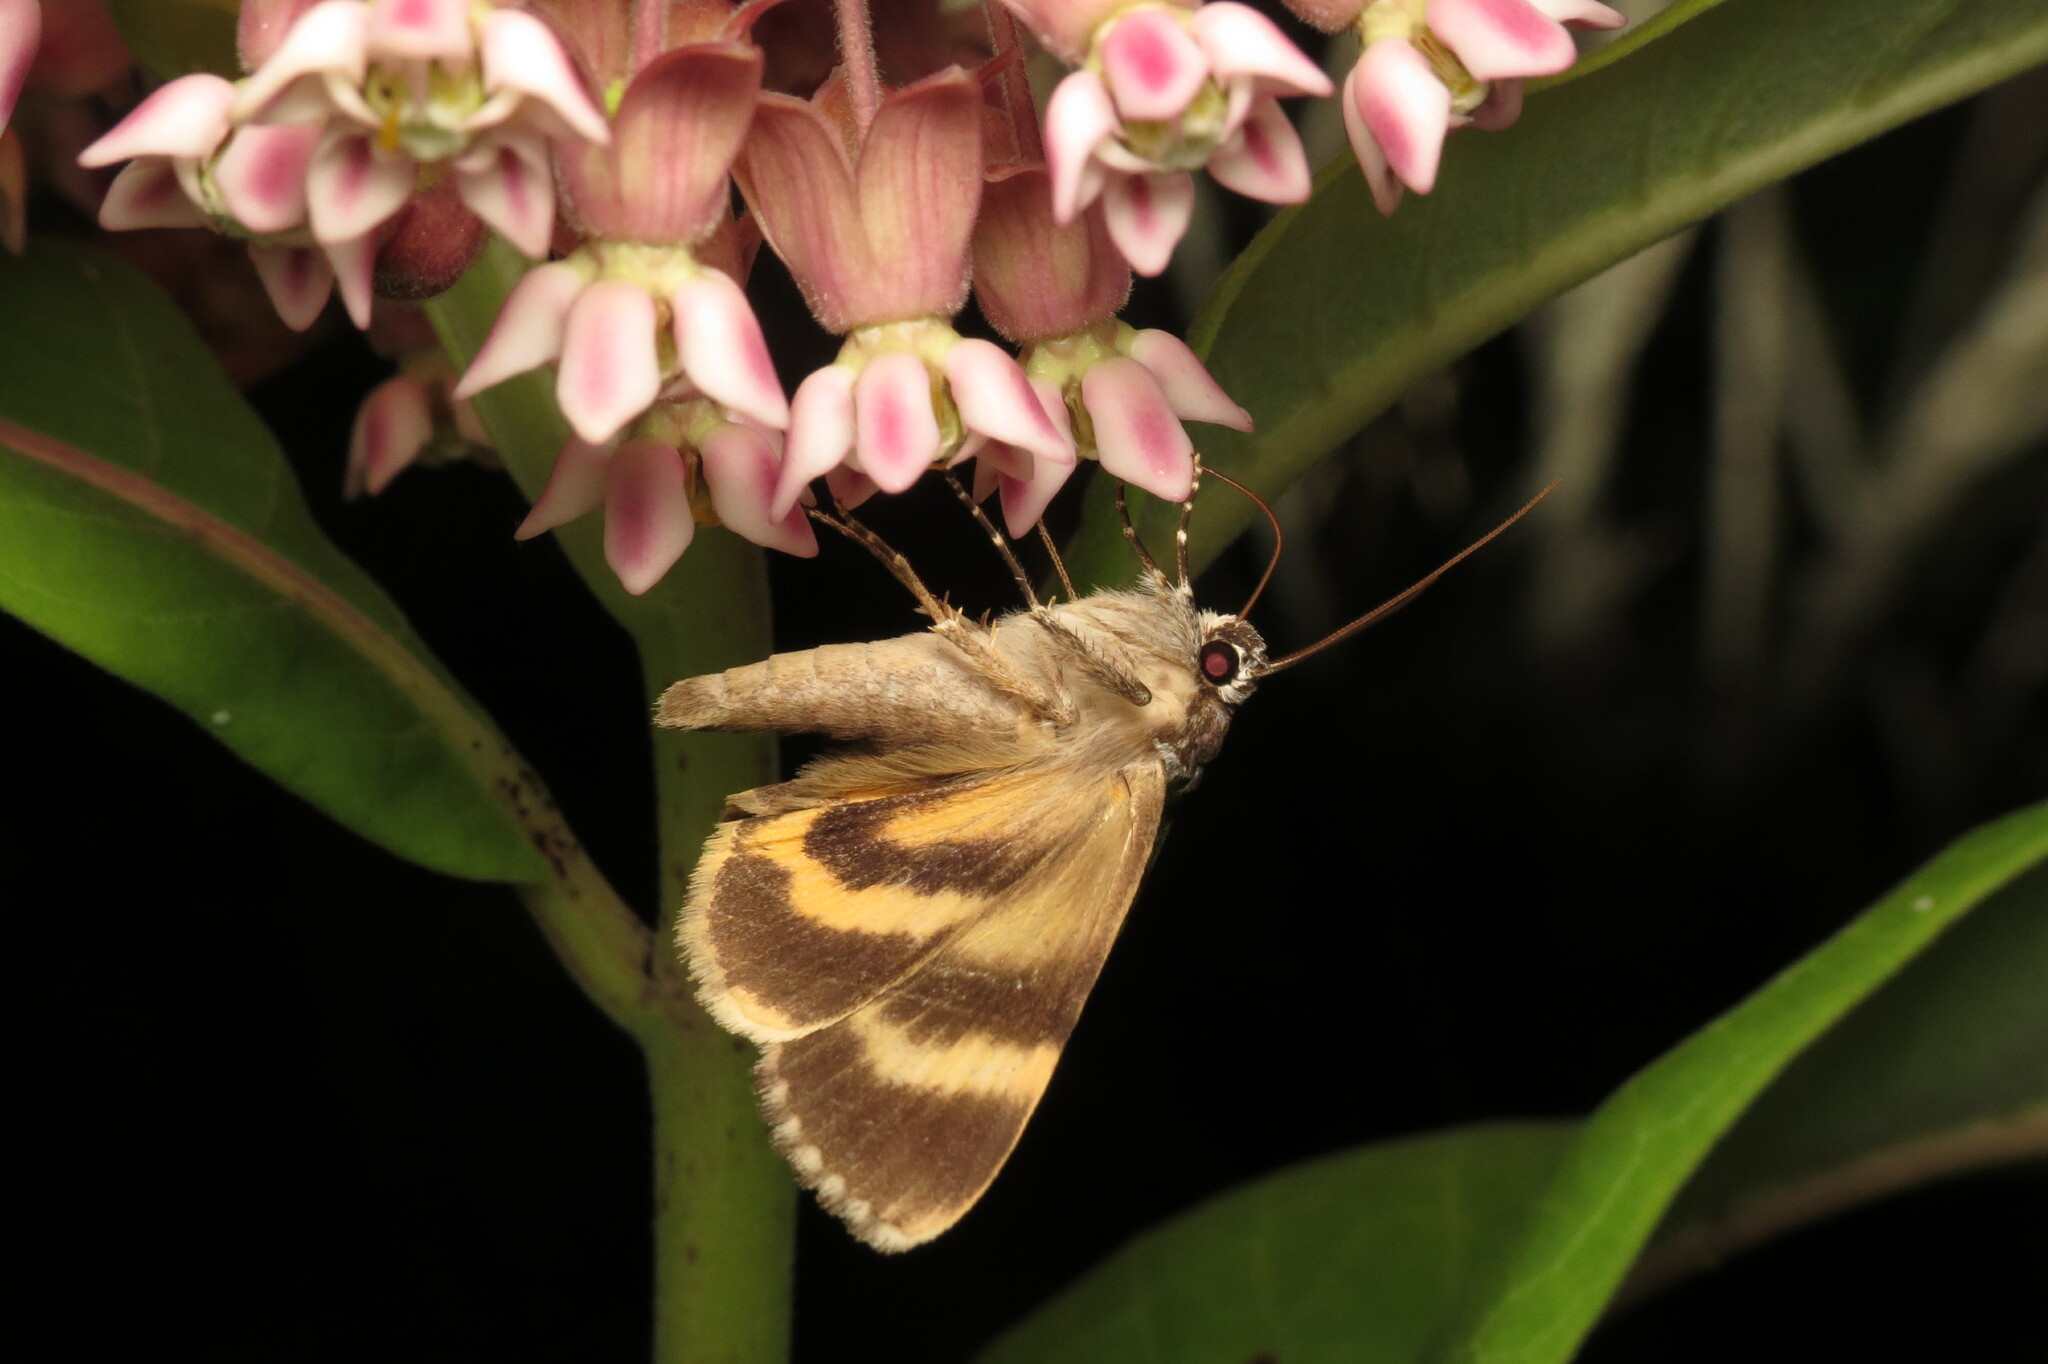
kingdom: Animalia
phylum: Arthropoda
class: Insecta
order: Lepidoptera
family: Erebidae
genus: Catocala
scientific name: Catocala sordida
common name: Sordid underwing
